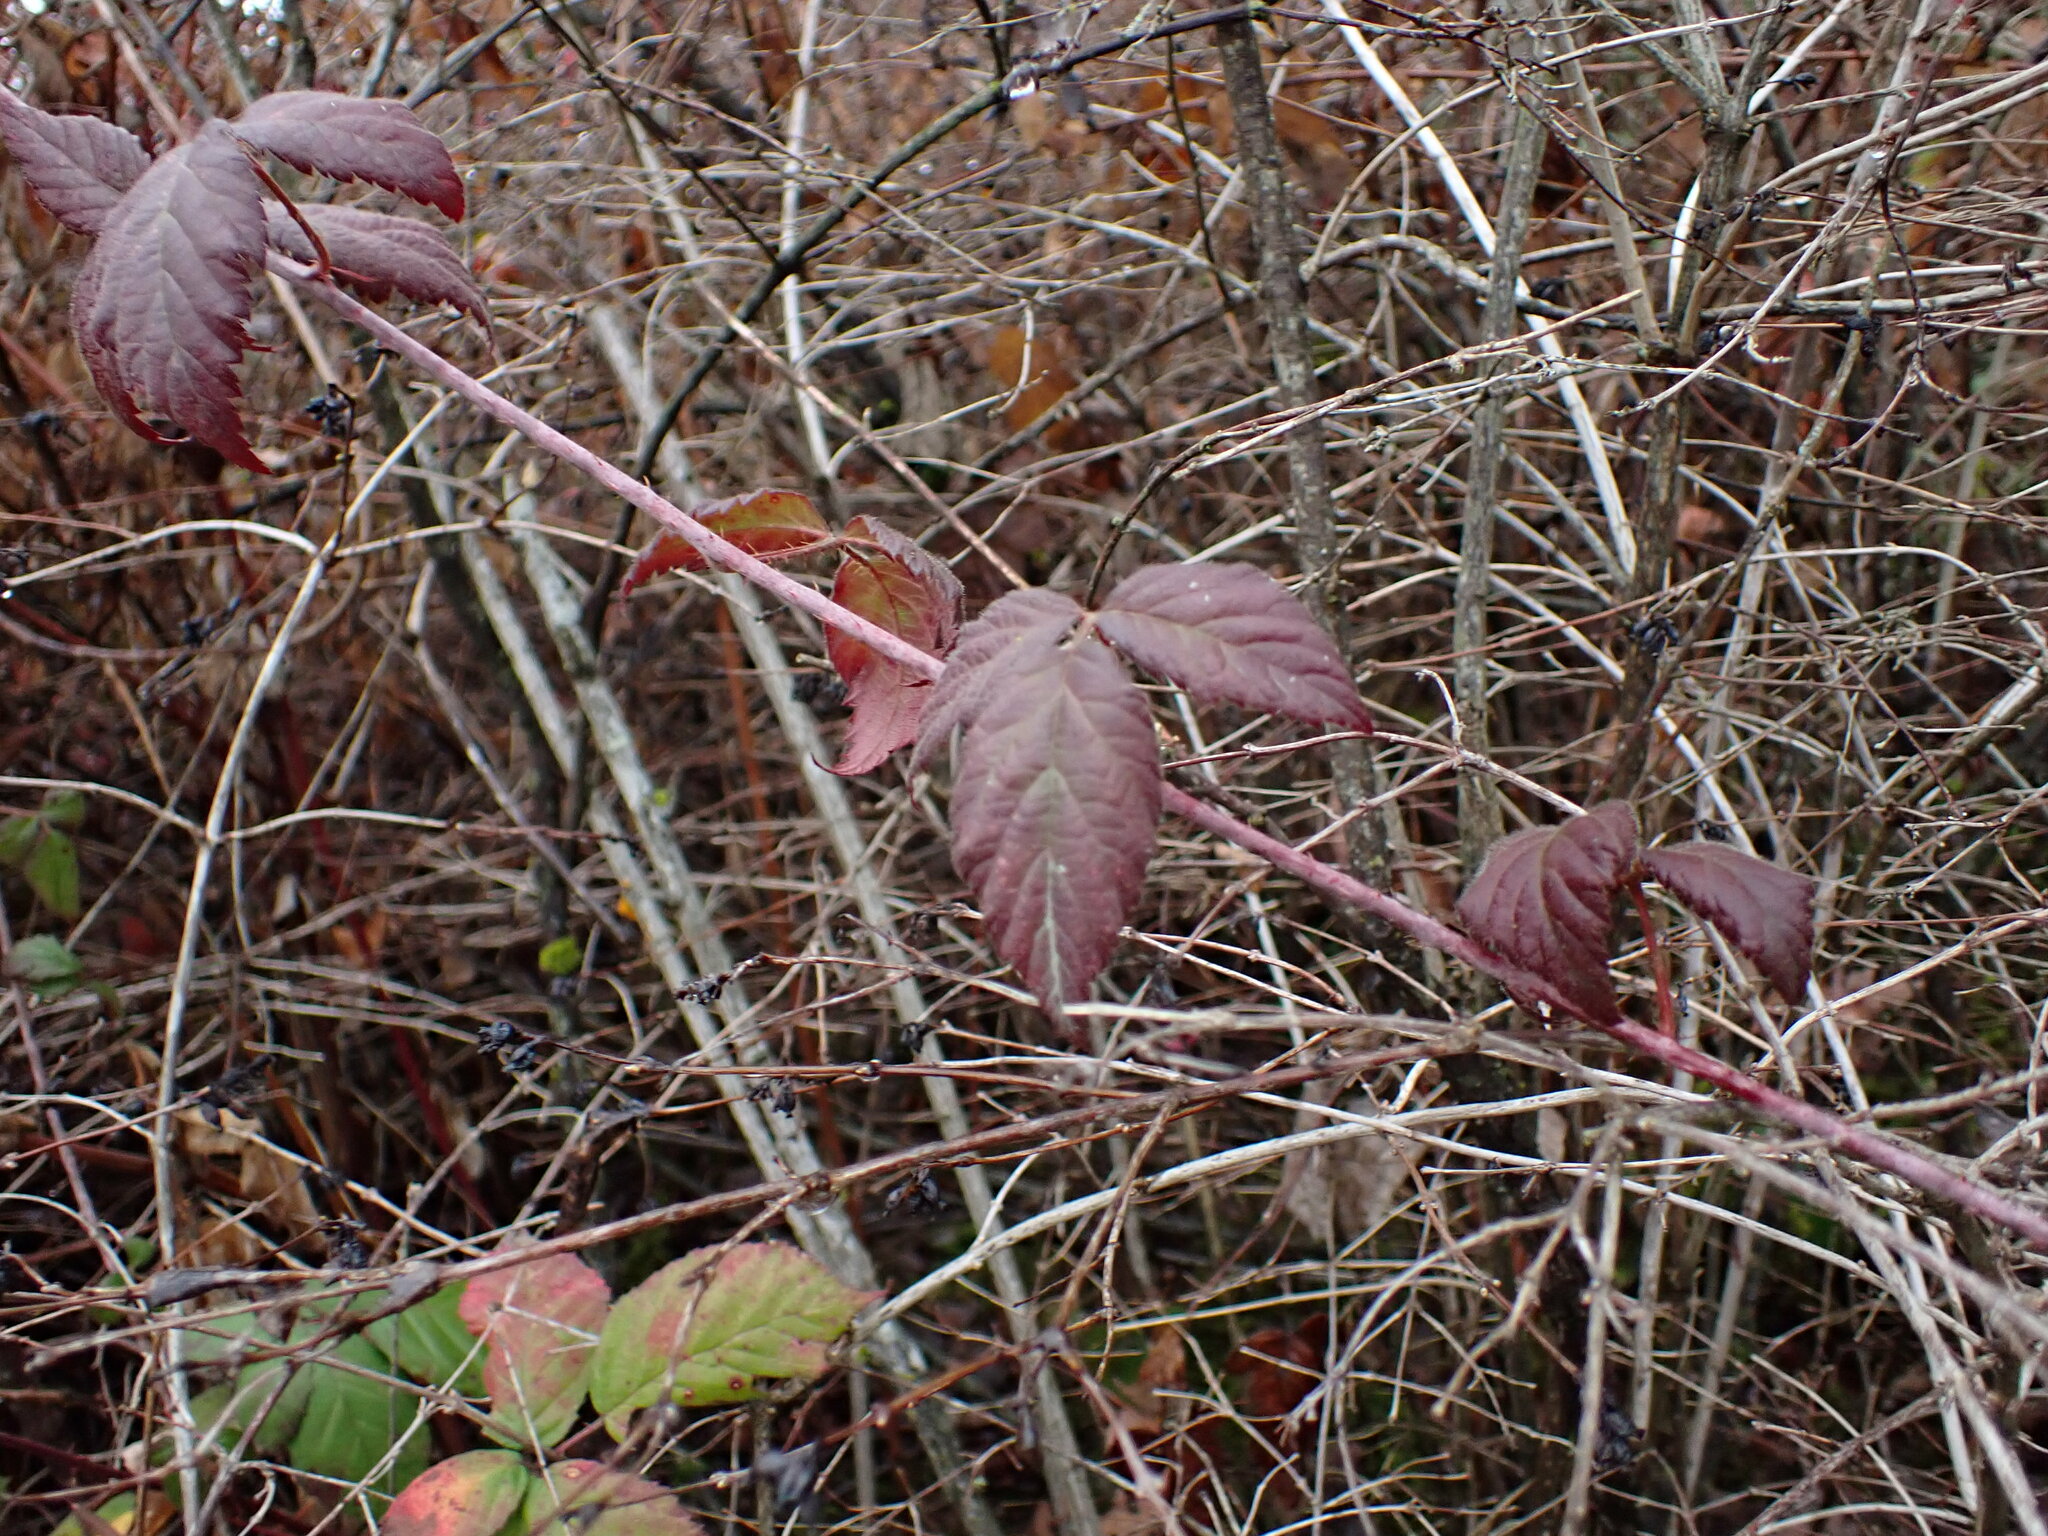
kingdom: Plantae
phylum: Tracheophyta
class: Magnoliopsida
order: Rosales
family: Rosaceae
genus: Rubus
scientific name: Rubus ursinus
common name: Pacific blackberry
